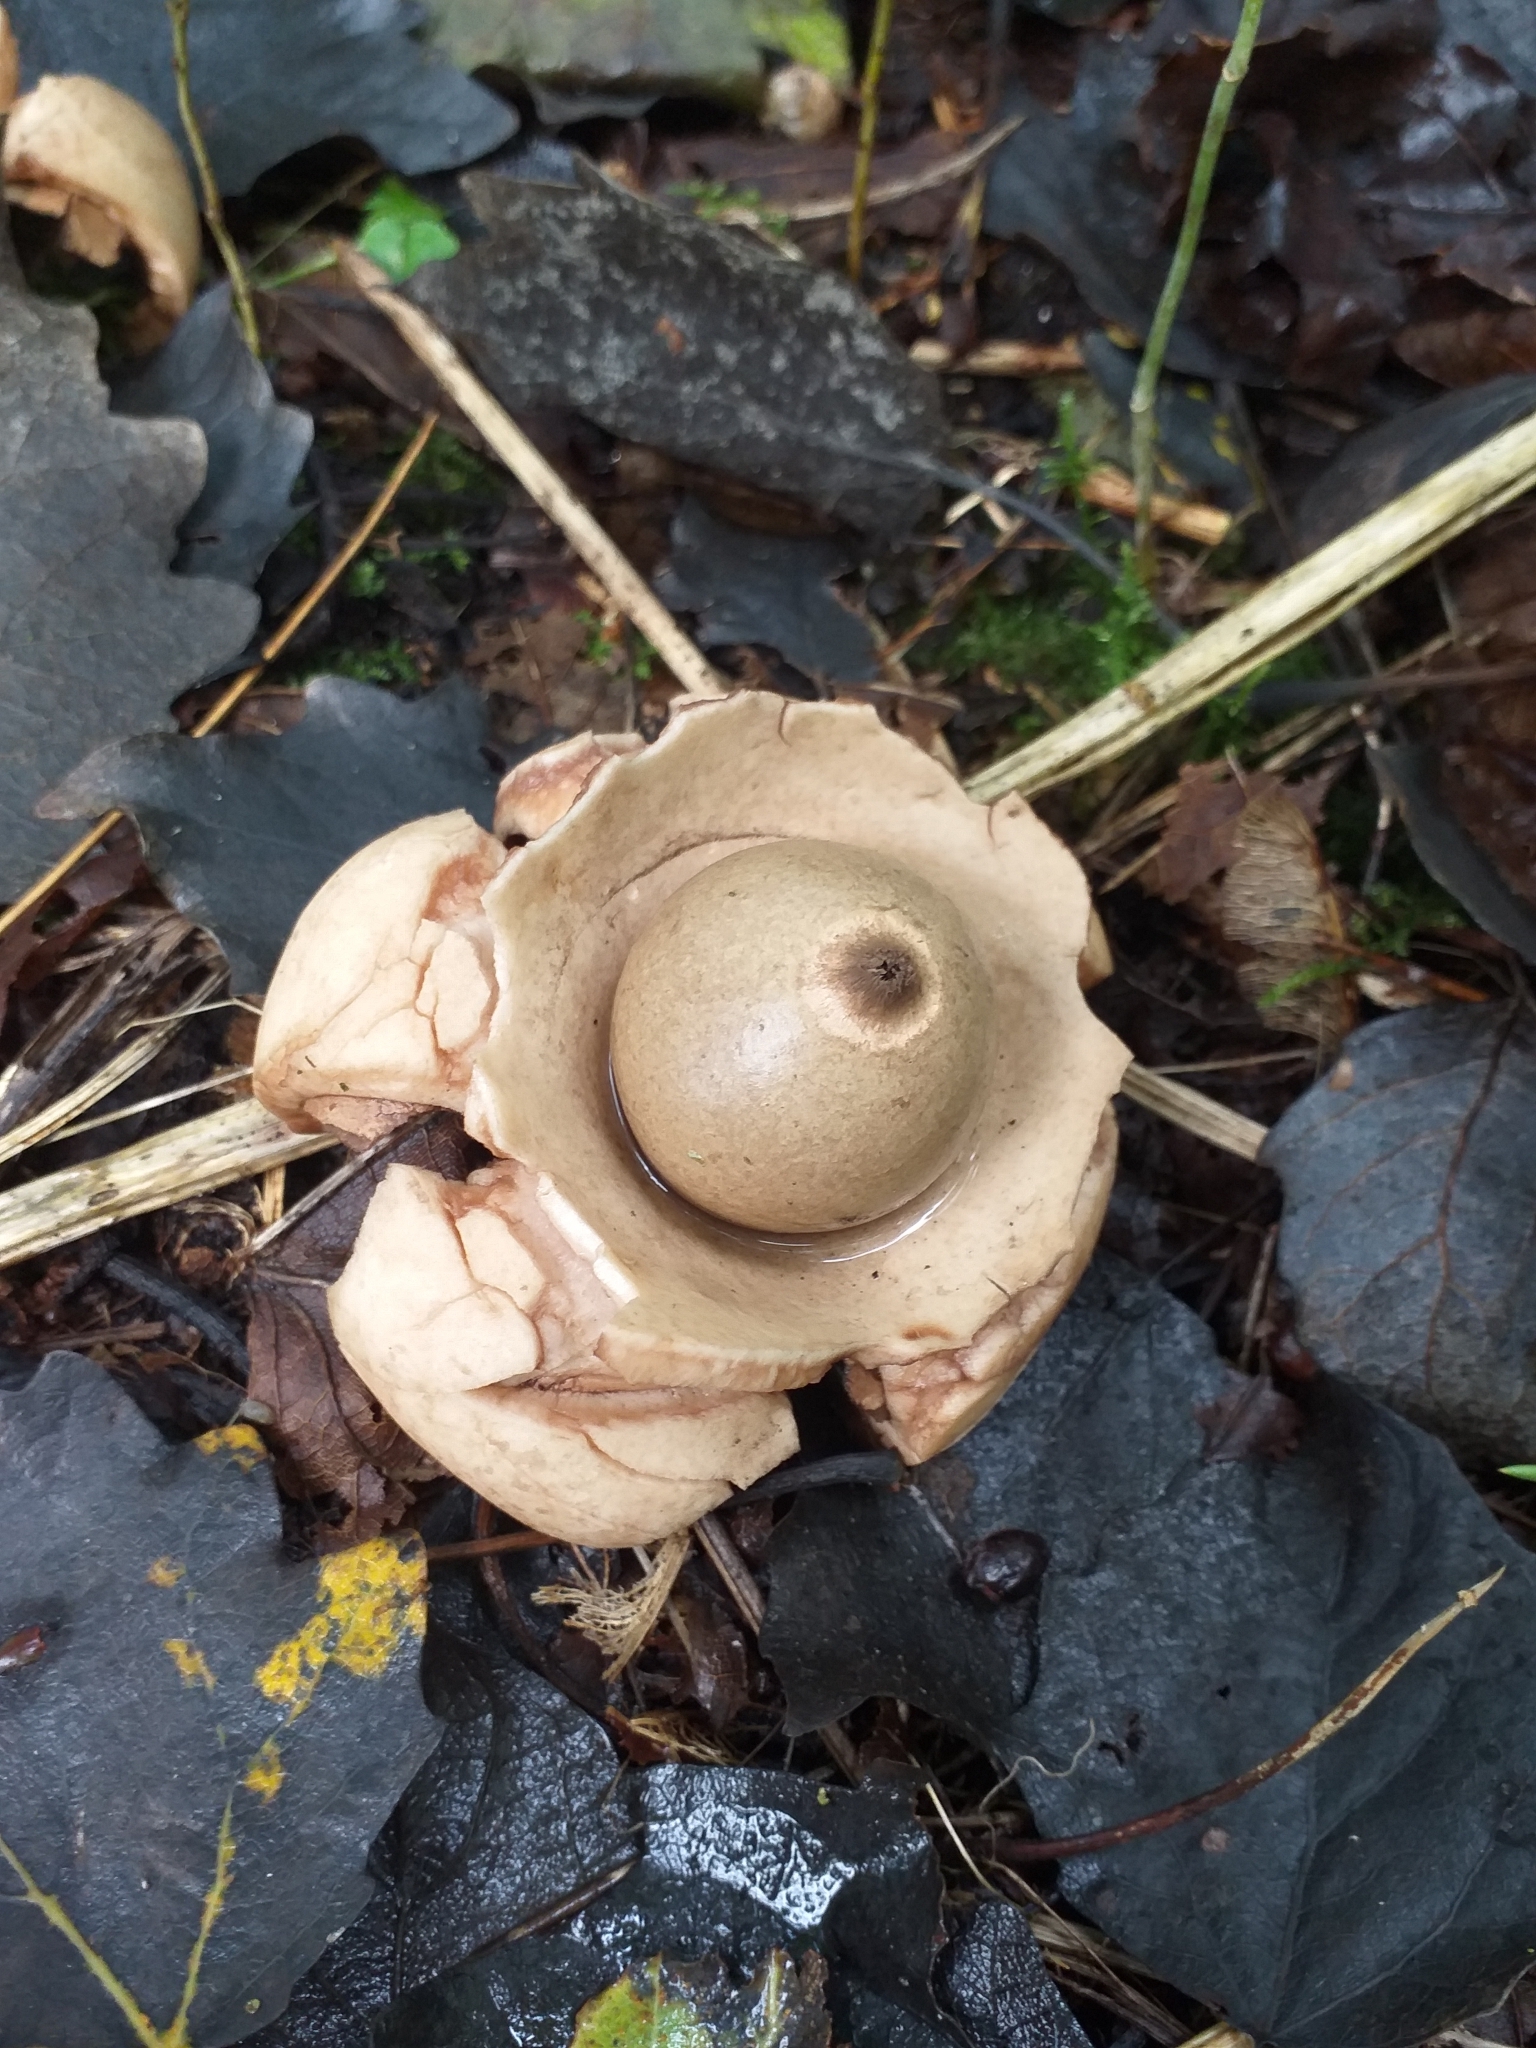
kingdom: Fungi
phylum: Basidiomycota
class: Agaricomycetes
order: Geastrales
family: Geastraceae
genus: Geastrum
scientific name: Geastrum triplex
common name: Collared earthstar
